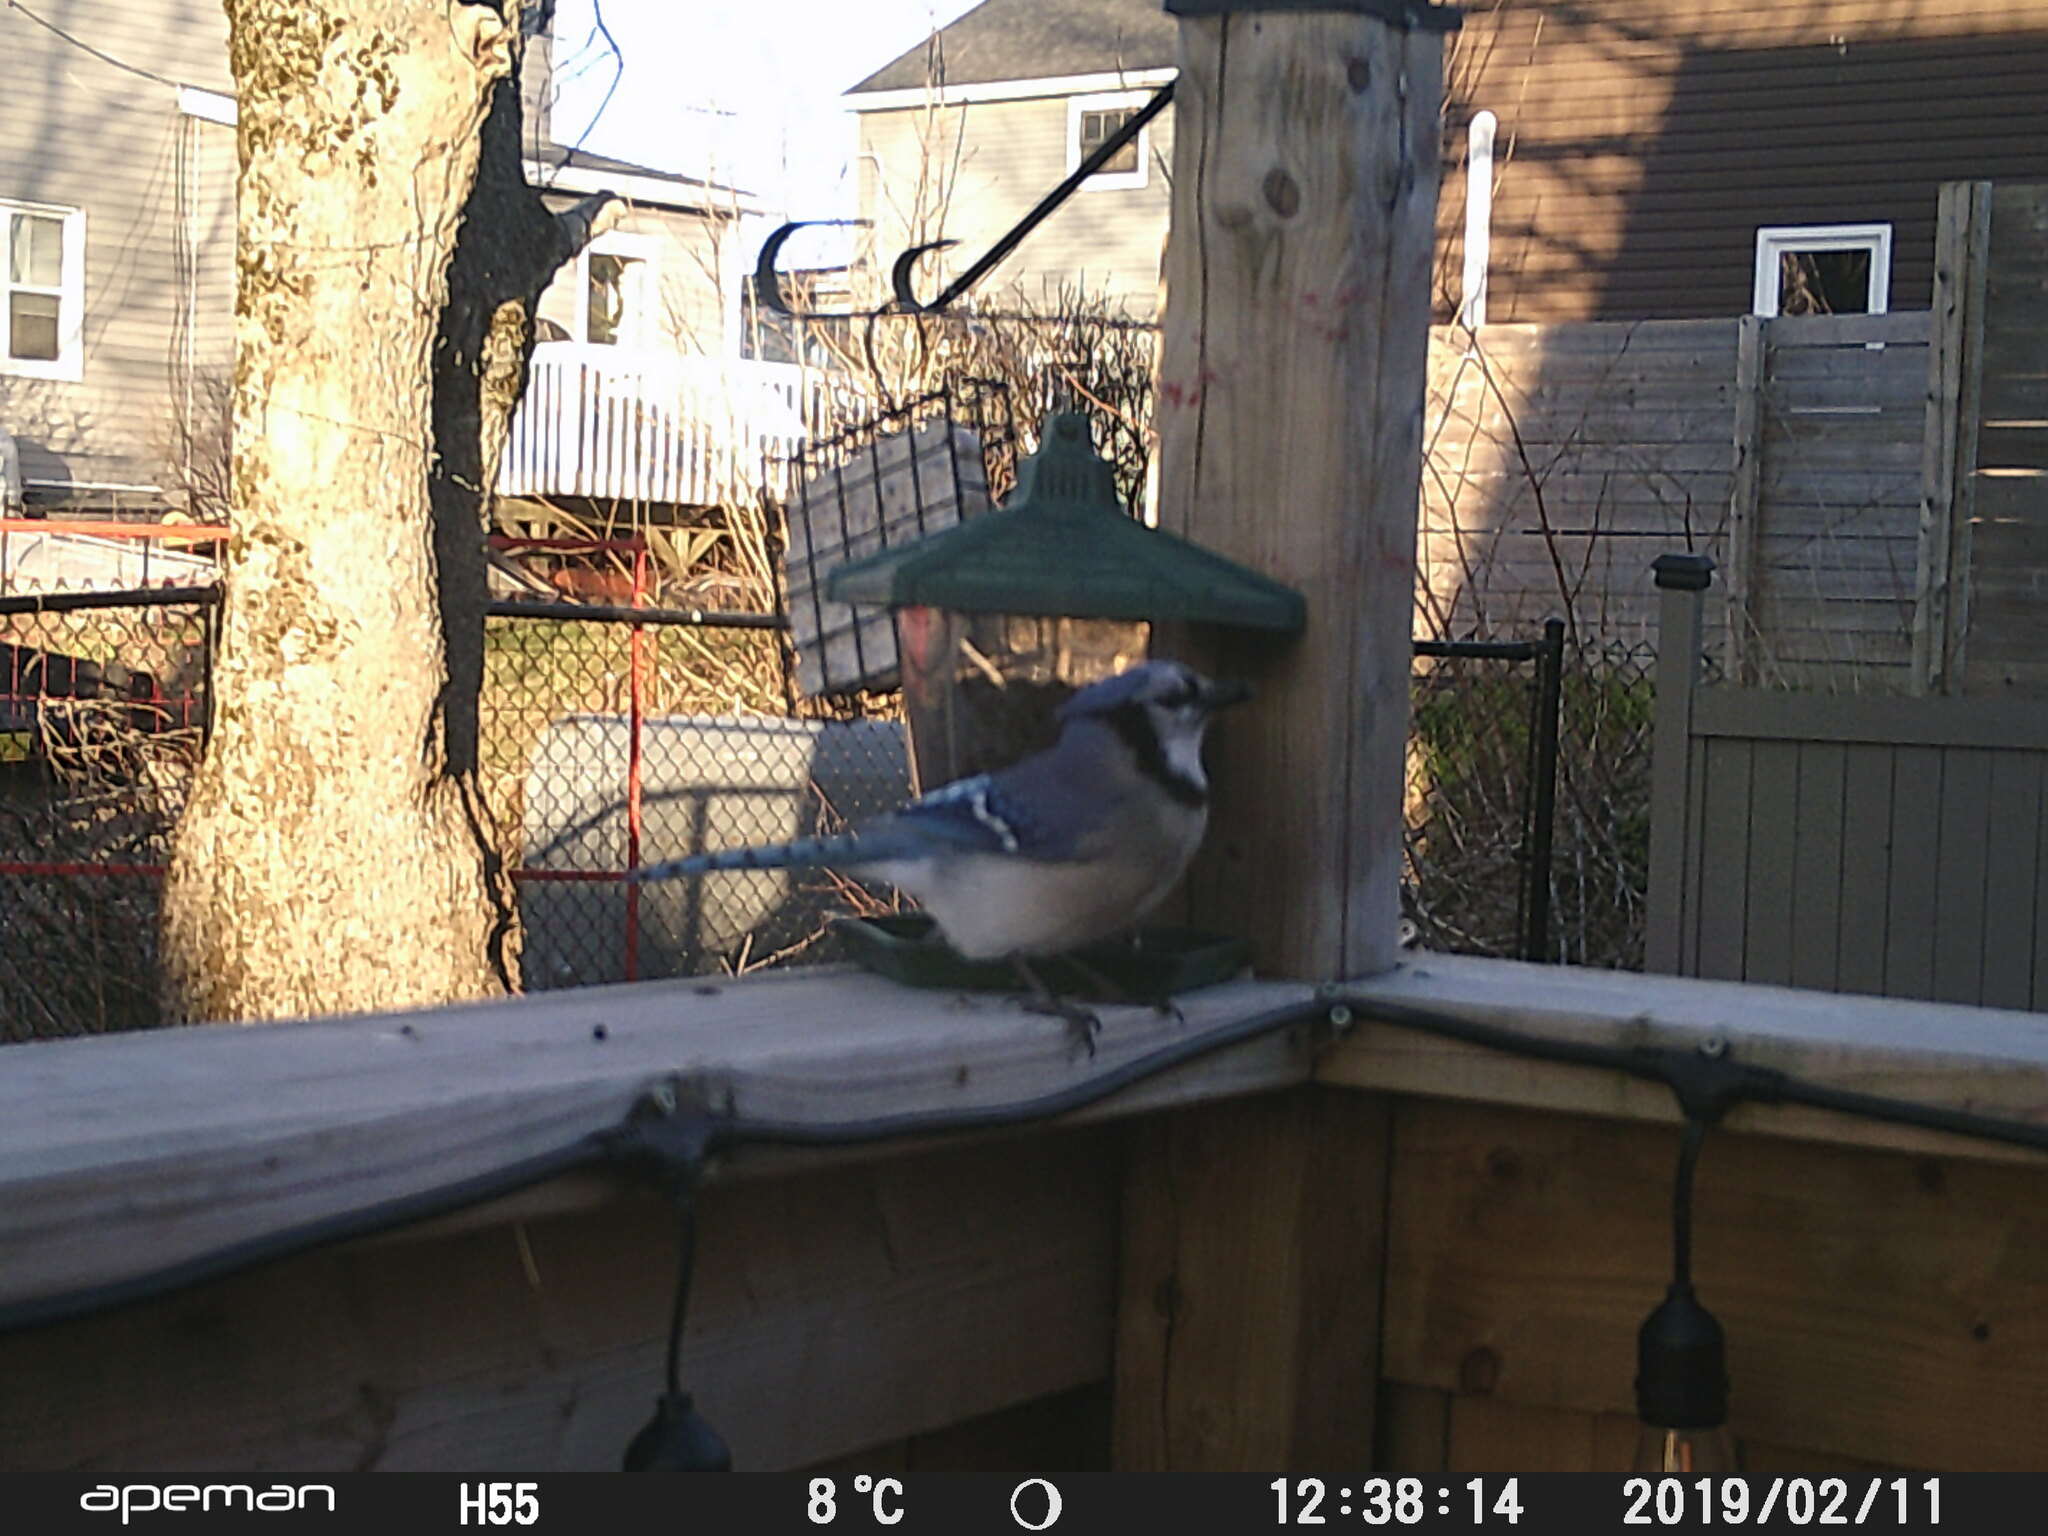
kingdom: Animalia
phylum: Chordata
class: Aves
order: Passeriformes
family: Corvidae
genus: Cyanocitta
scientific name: Cyanocitta cristata
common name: Blue jay
